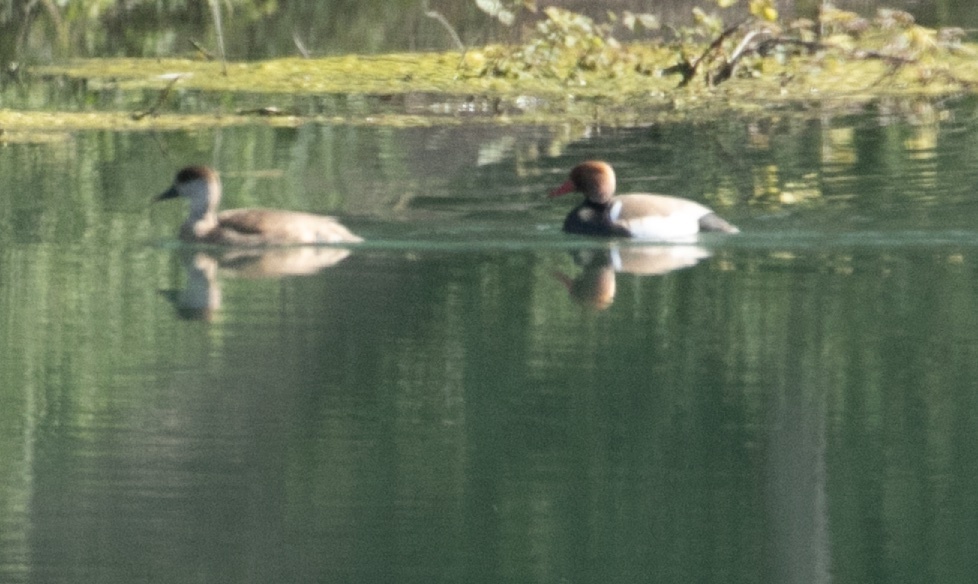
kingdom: Animalia
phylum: Chordata
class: Aves
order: Anseriformes
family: Anatidae
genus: Netta
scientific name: Netta rufina
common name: Red-crested pochard
